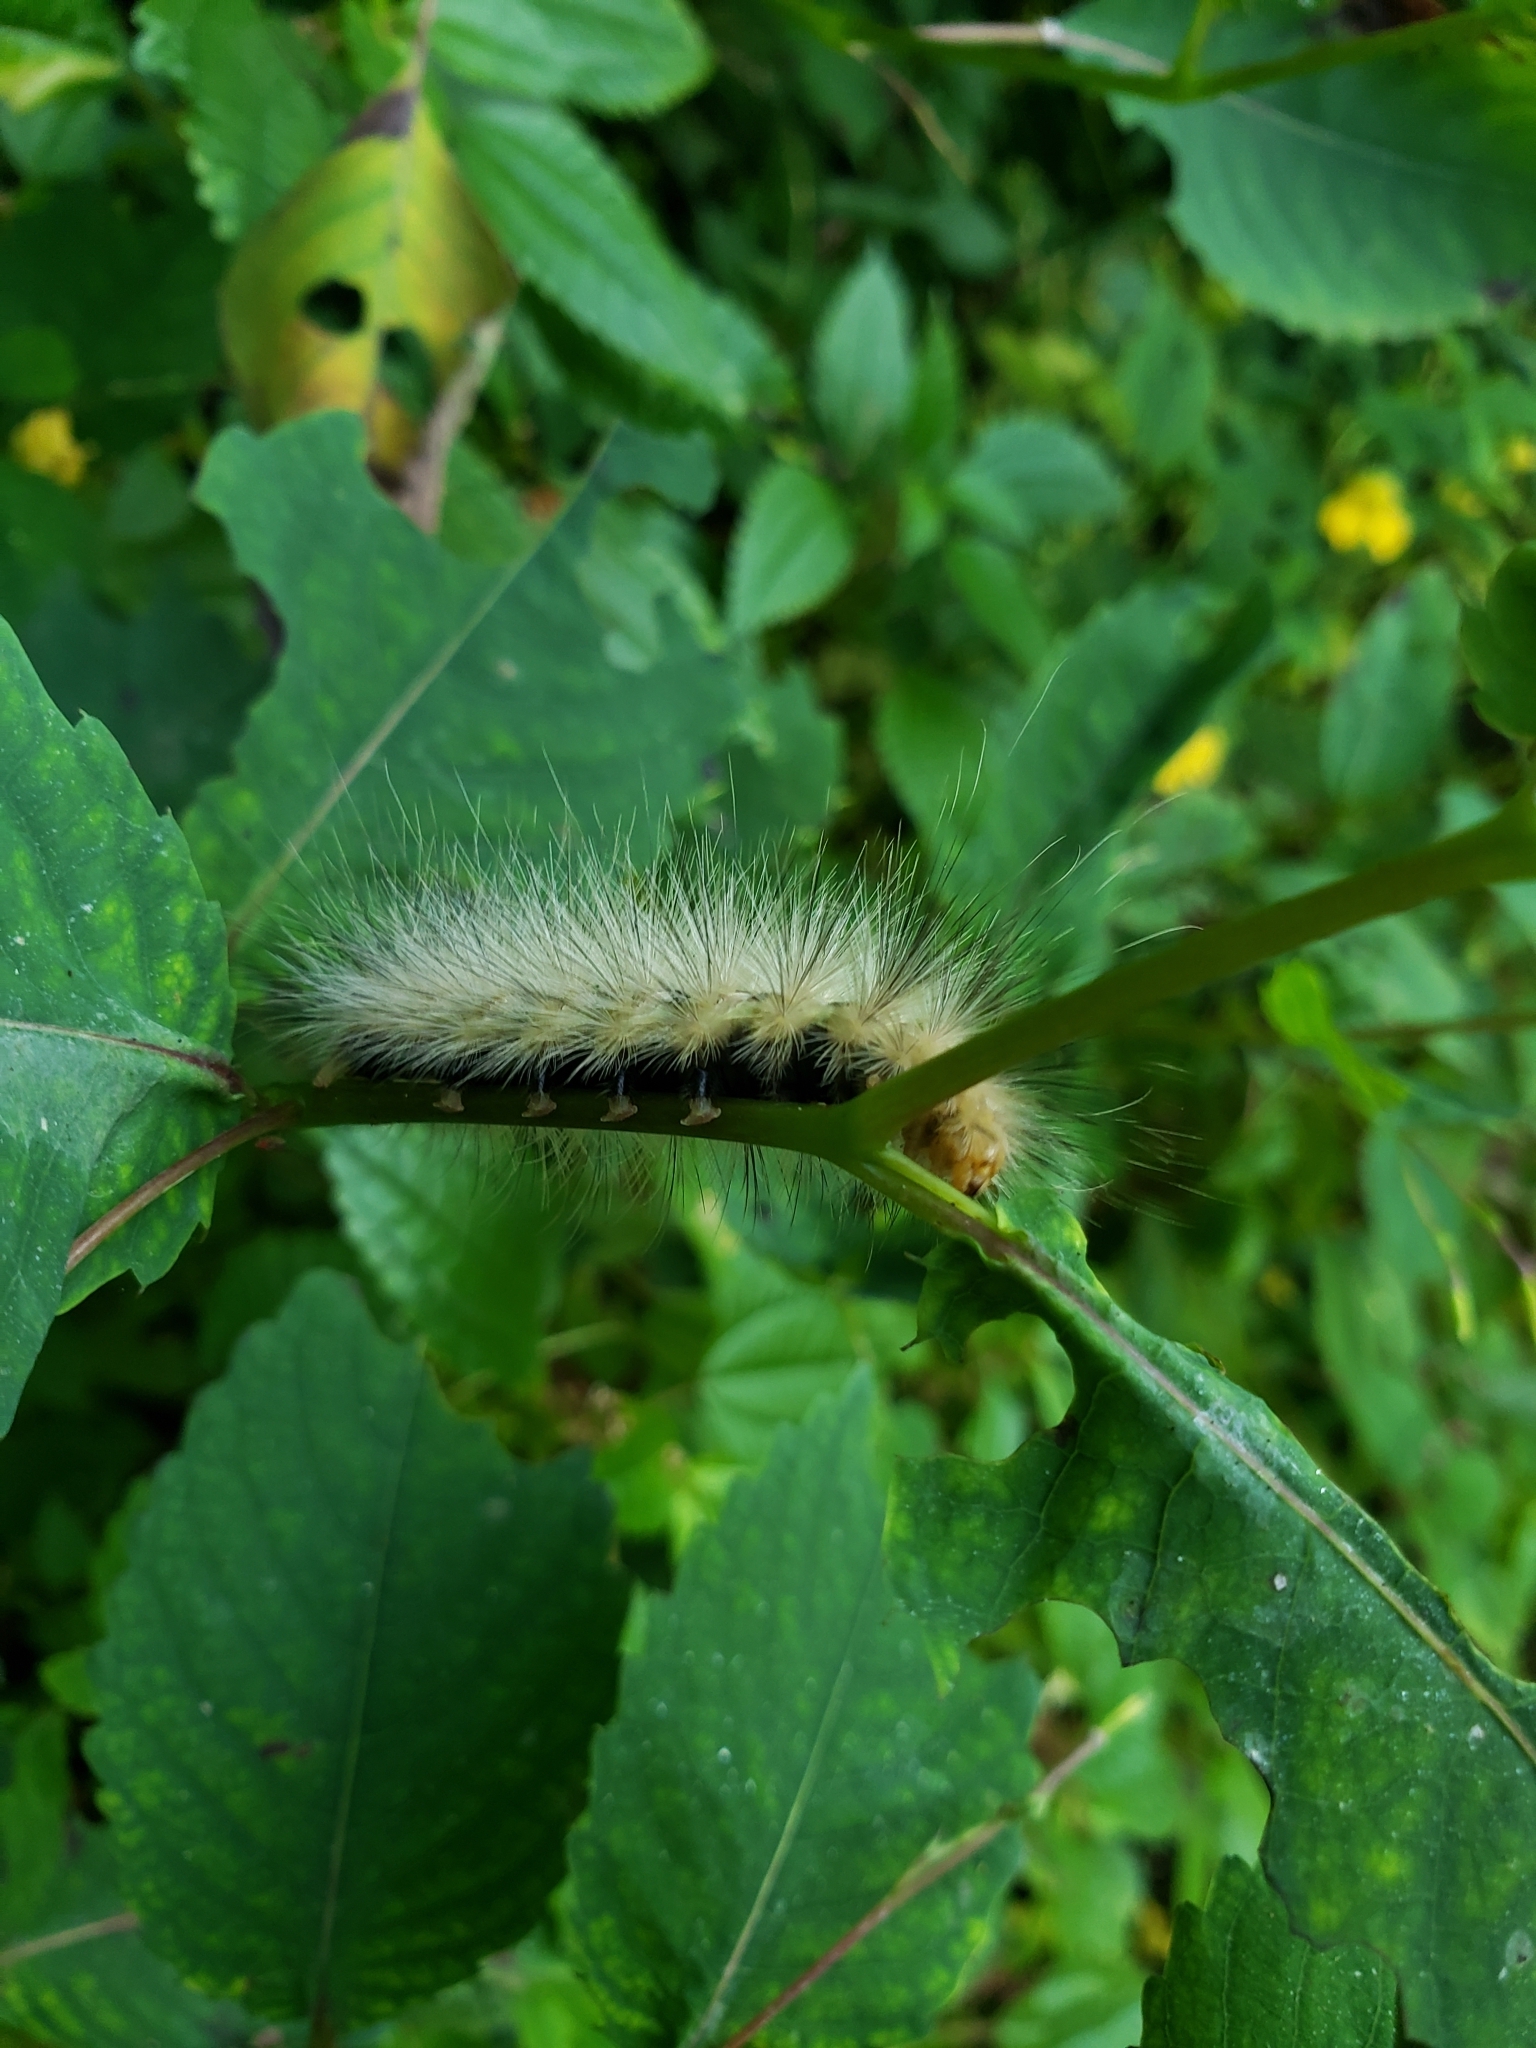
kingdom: Animalia
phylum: Arthropoda
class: Insecta
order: Lepidoptera
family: Erebidae
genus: Spilosoma
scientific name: Spilosoma virginica
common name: Virginia tiger moth
